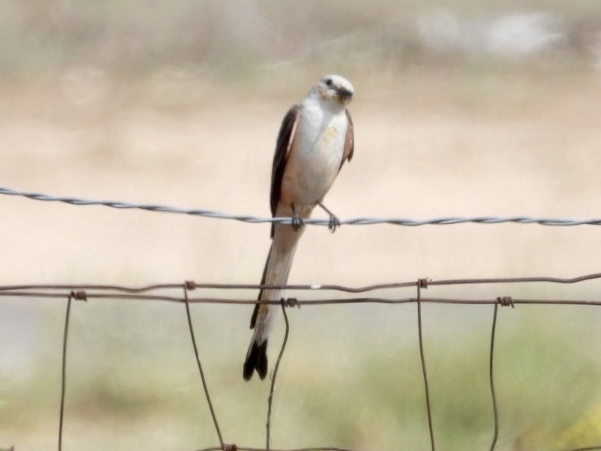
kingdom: Animalia
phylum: Chordata
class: Aves
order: Passeriformes
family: Tyrannidae
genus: Tyrannus
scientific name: Tyrannus forficatus
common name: Scissor-tailed flycatcher
